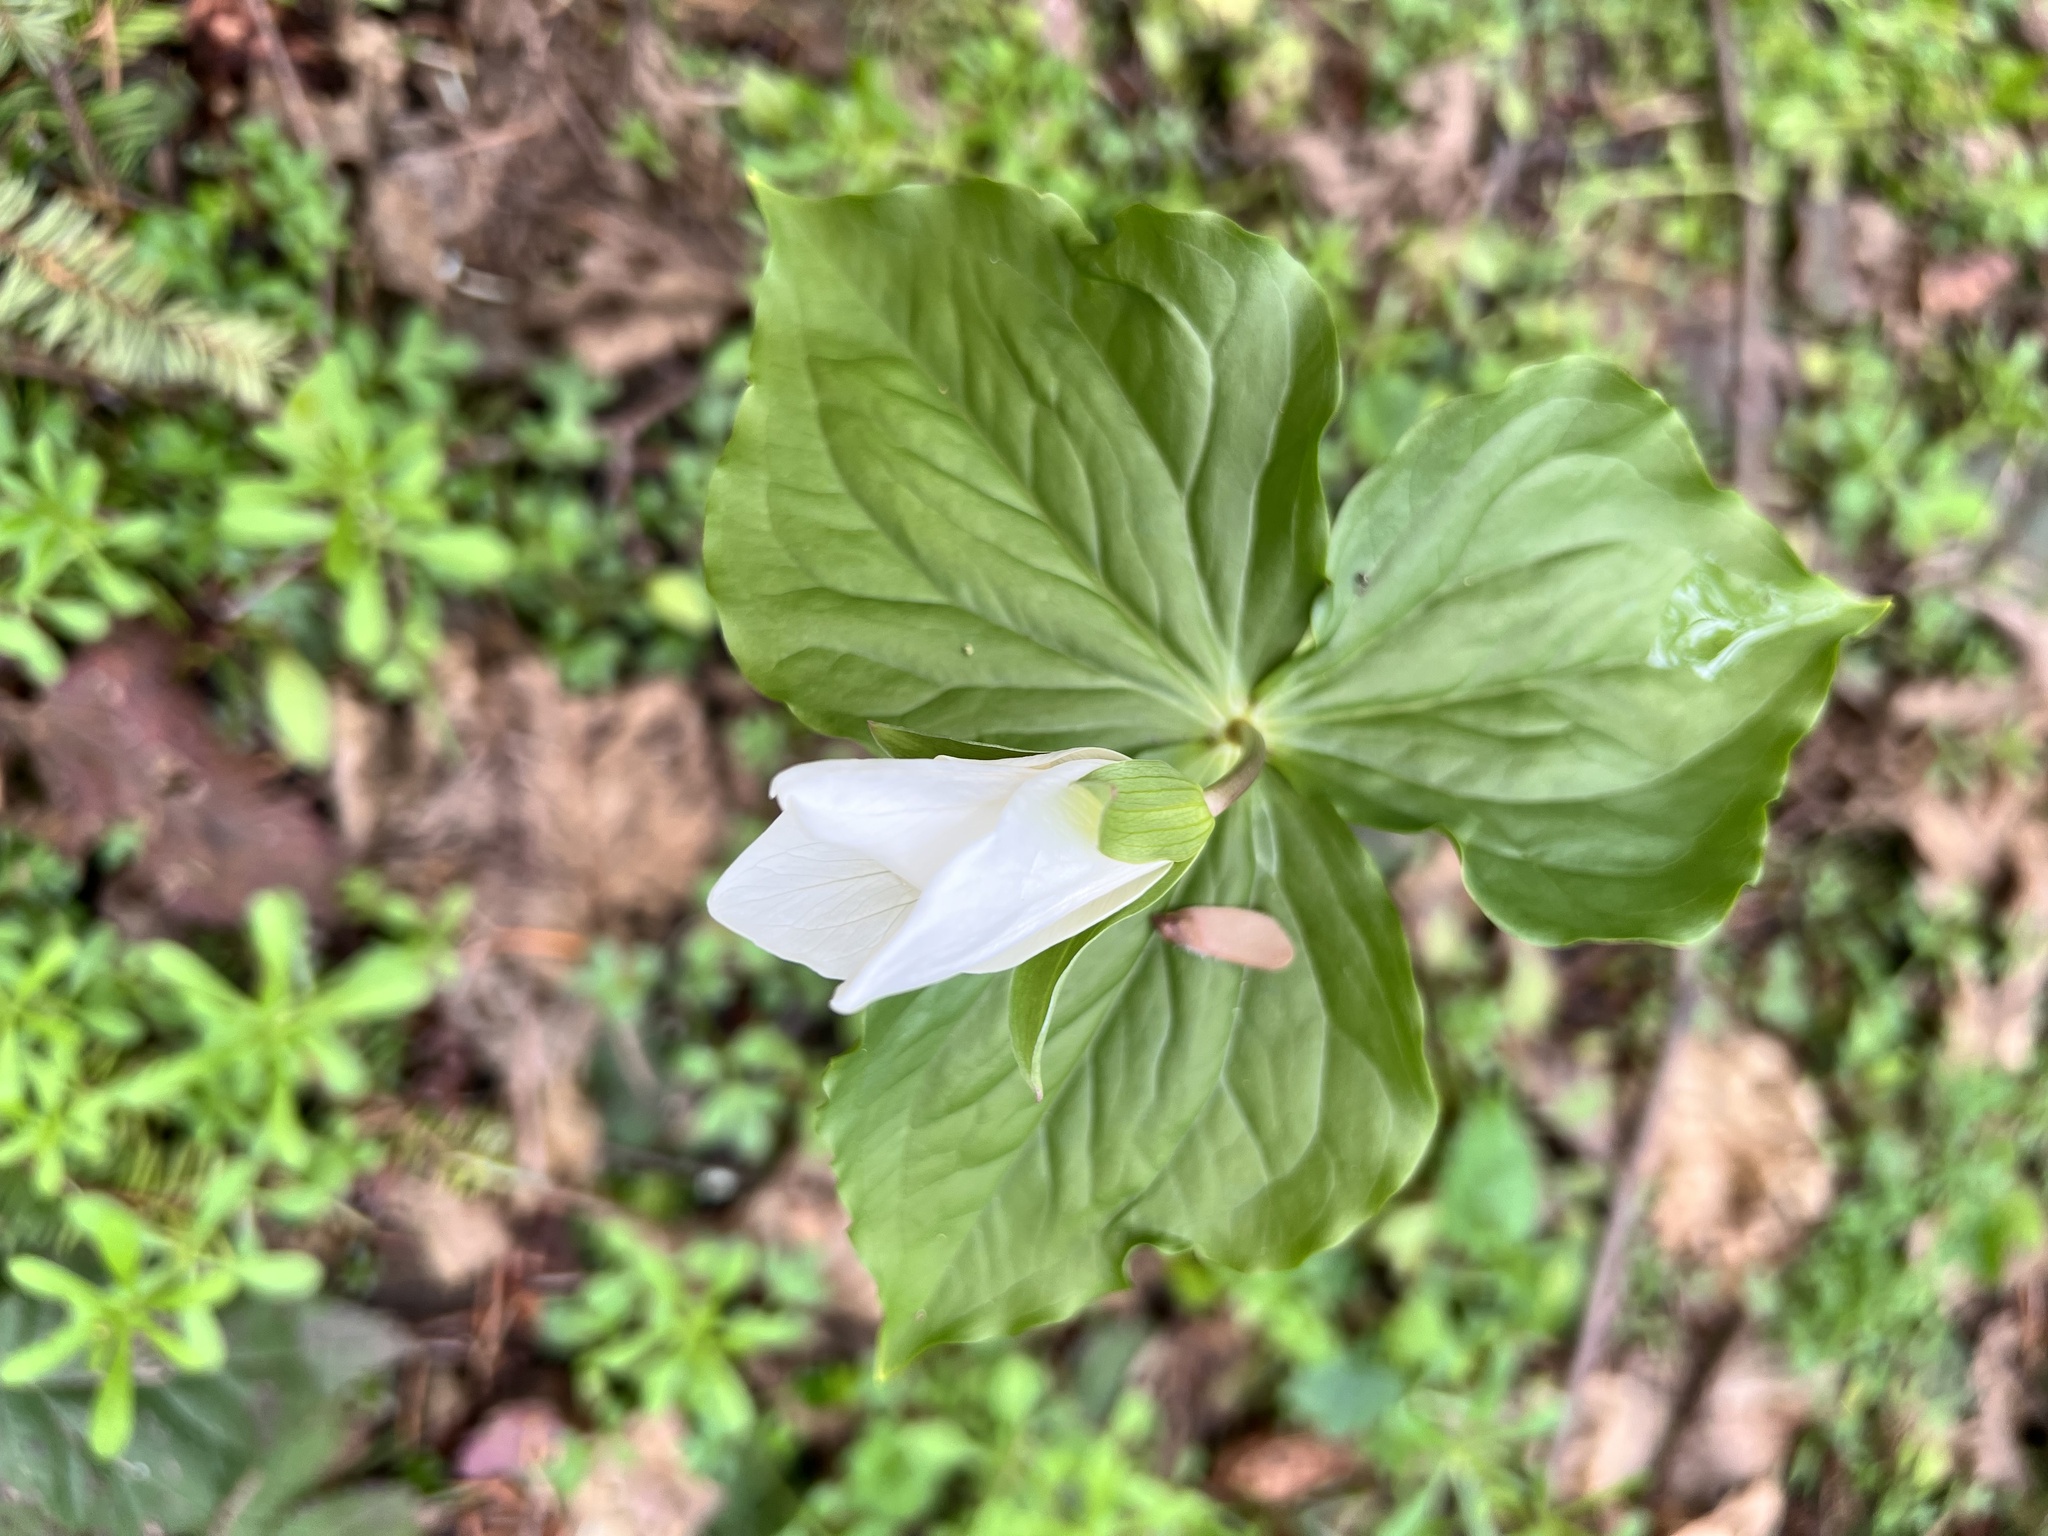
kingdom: Plantae
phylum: Tracheophyta
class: Liliopsida
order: Liliales
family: Melanthiaceae
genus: Trillium
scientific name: Trillium ovatum
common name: Pacific trillium
